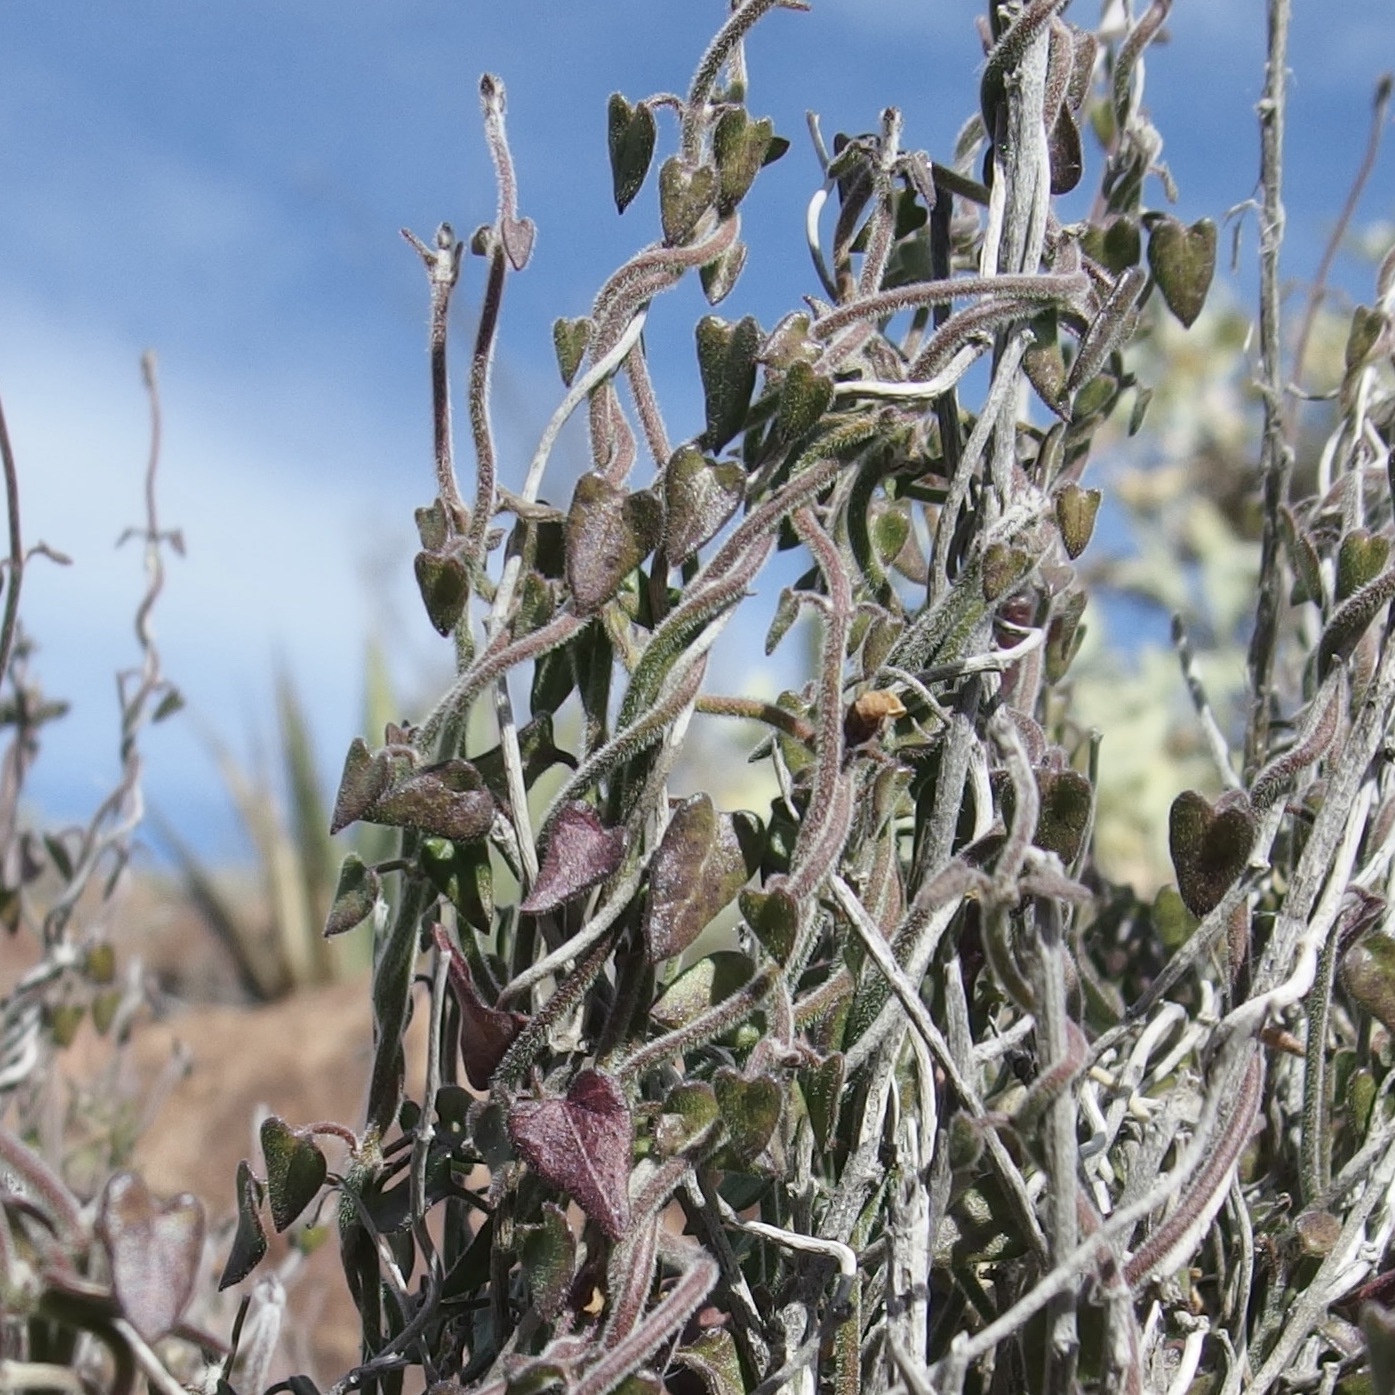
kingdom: Plantae
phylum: Tracheophyta
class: Magnoliopsida
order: Gentianales
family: Apocynaceae
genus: Lachnostoma
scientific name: Lachnostoma hastulatum
